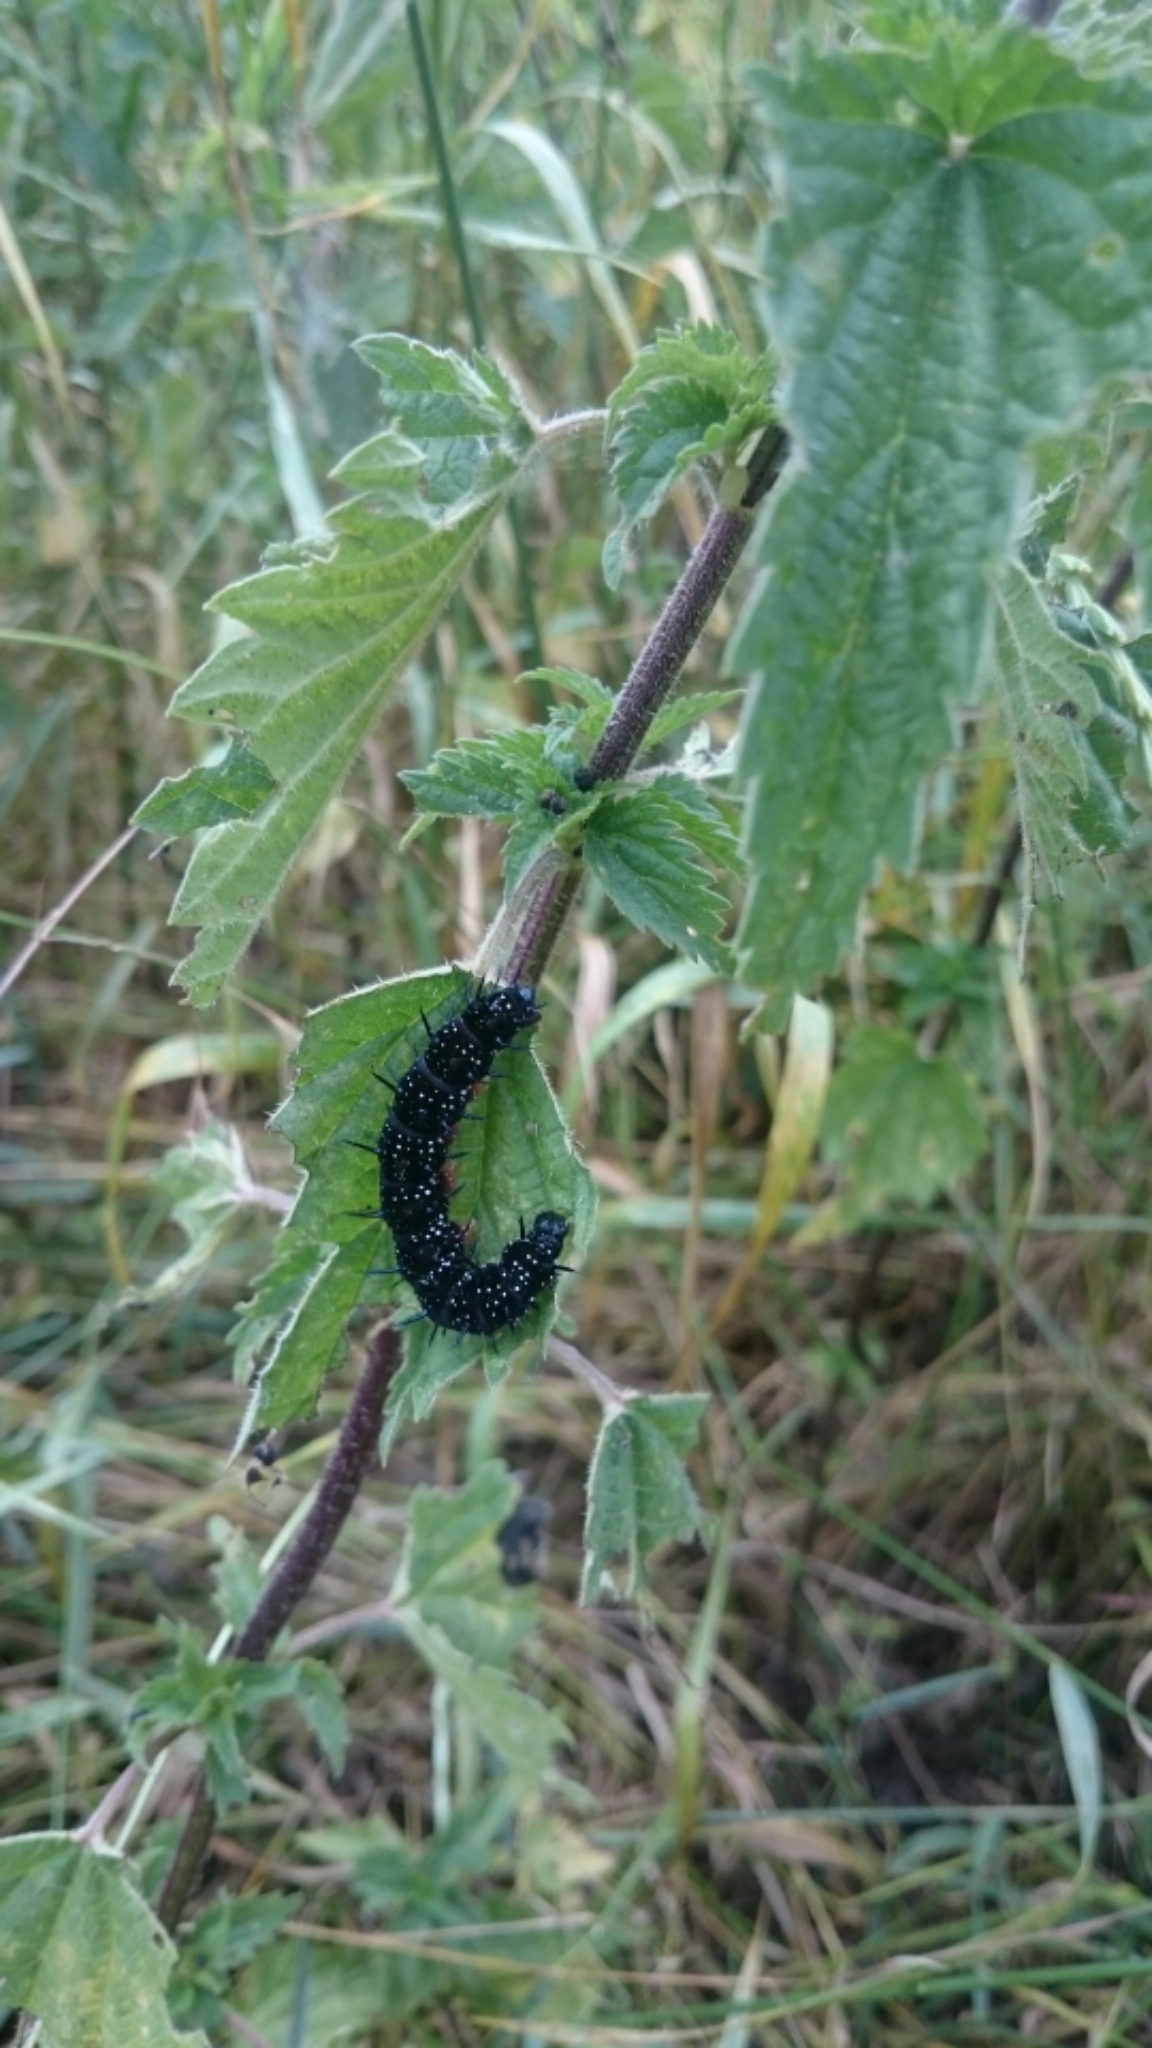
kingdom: Animalia
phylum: Arthropoda
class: Insecta
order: Lepidoptera
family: Nymphalidae
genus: Aglais
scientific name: Aglais io
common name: Peacock
